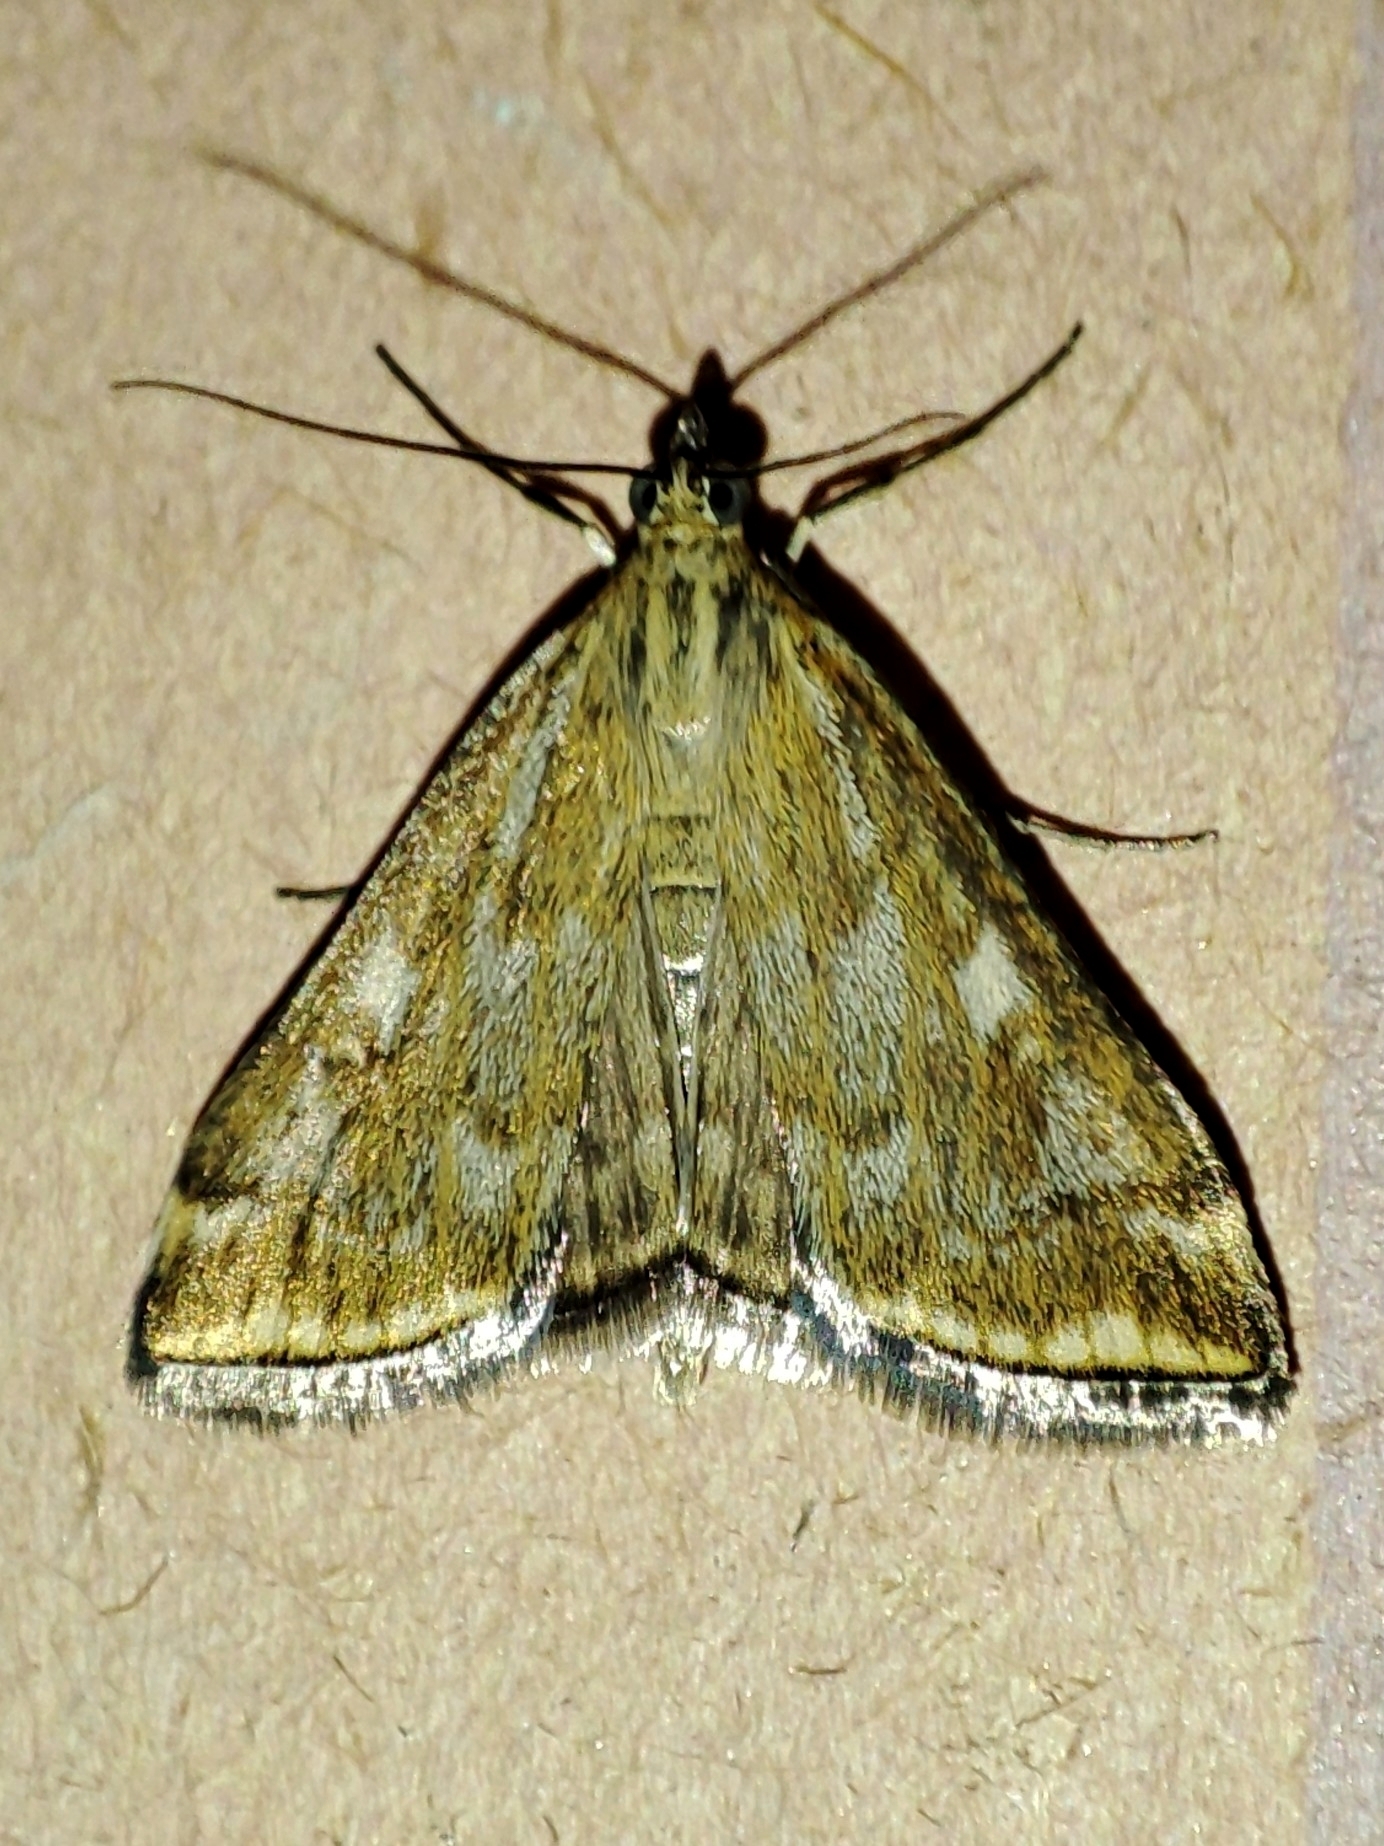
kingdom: Animalia
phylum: Arthropoda
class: Insecta
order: Lepidoptera
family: Crambidae
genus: Loxostege
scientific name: Loxostege sticticalis
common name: Crambid moth
